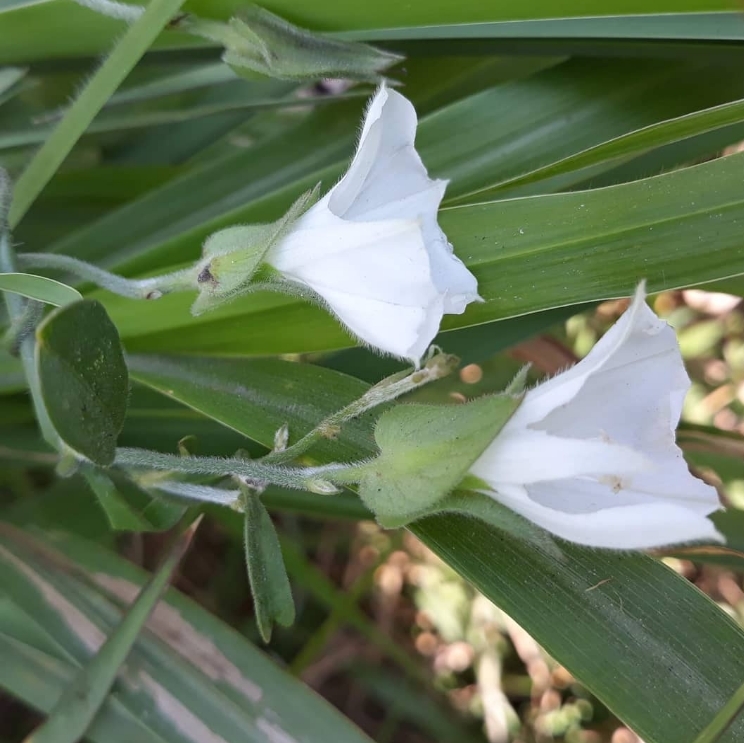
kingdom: Plantae
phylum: Tracheophyta
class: Magnoliopsida
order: Solanales
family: Convolvulaceae
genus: Aniseia
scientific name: Aniseia martinicensis
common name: Kulayadambu
